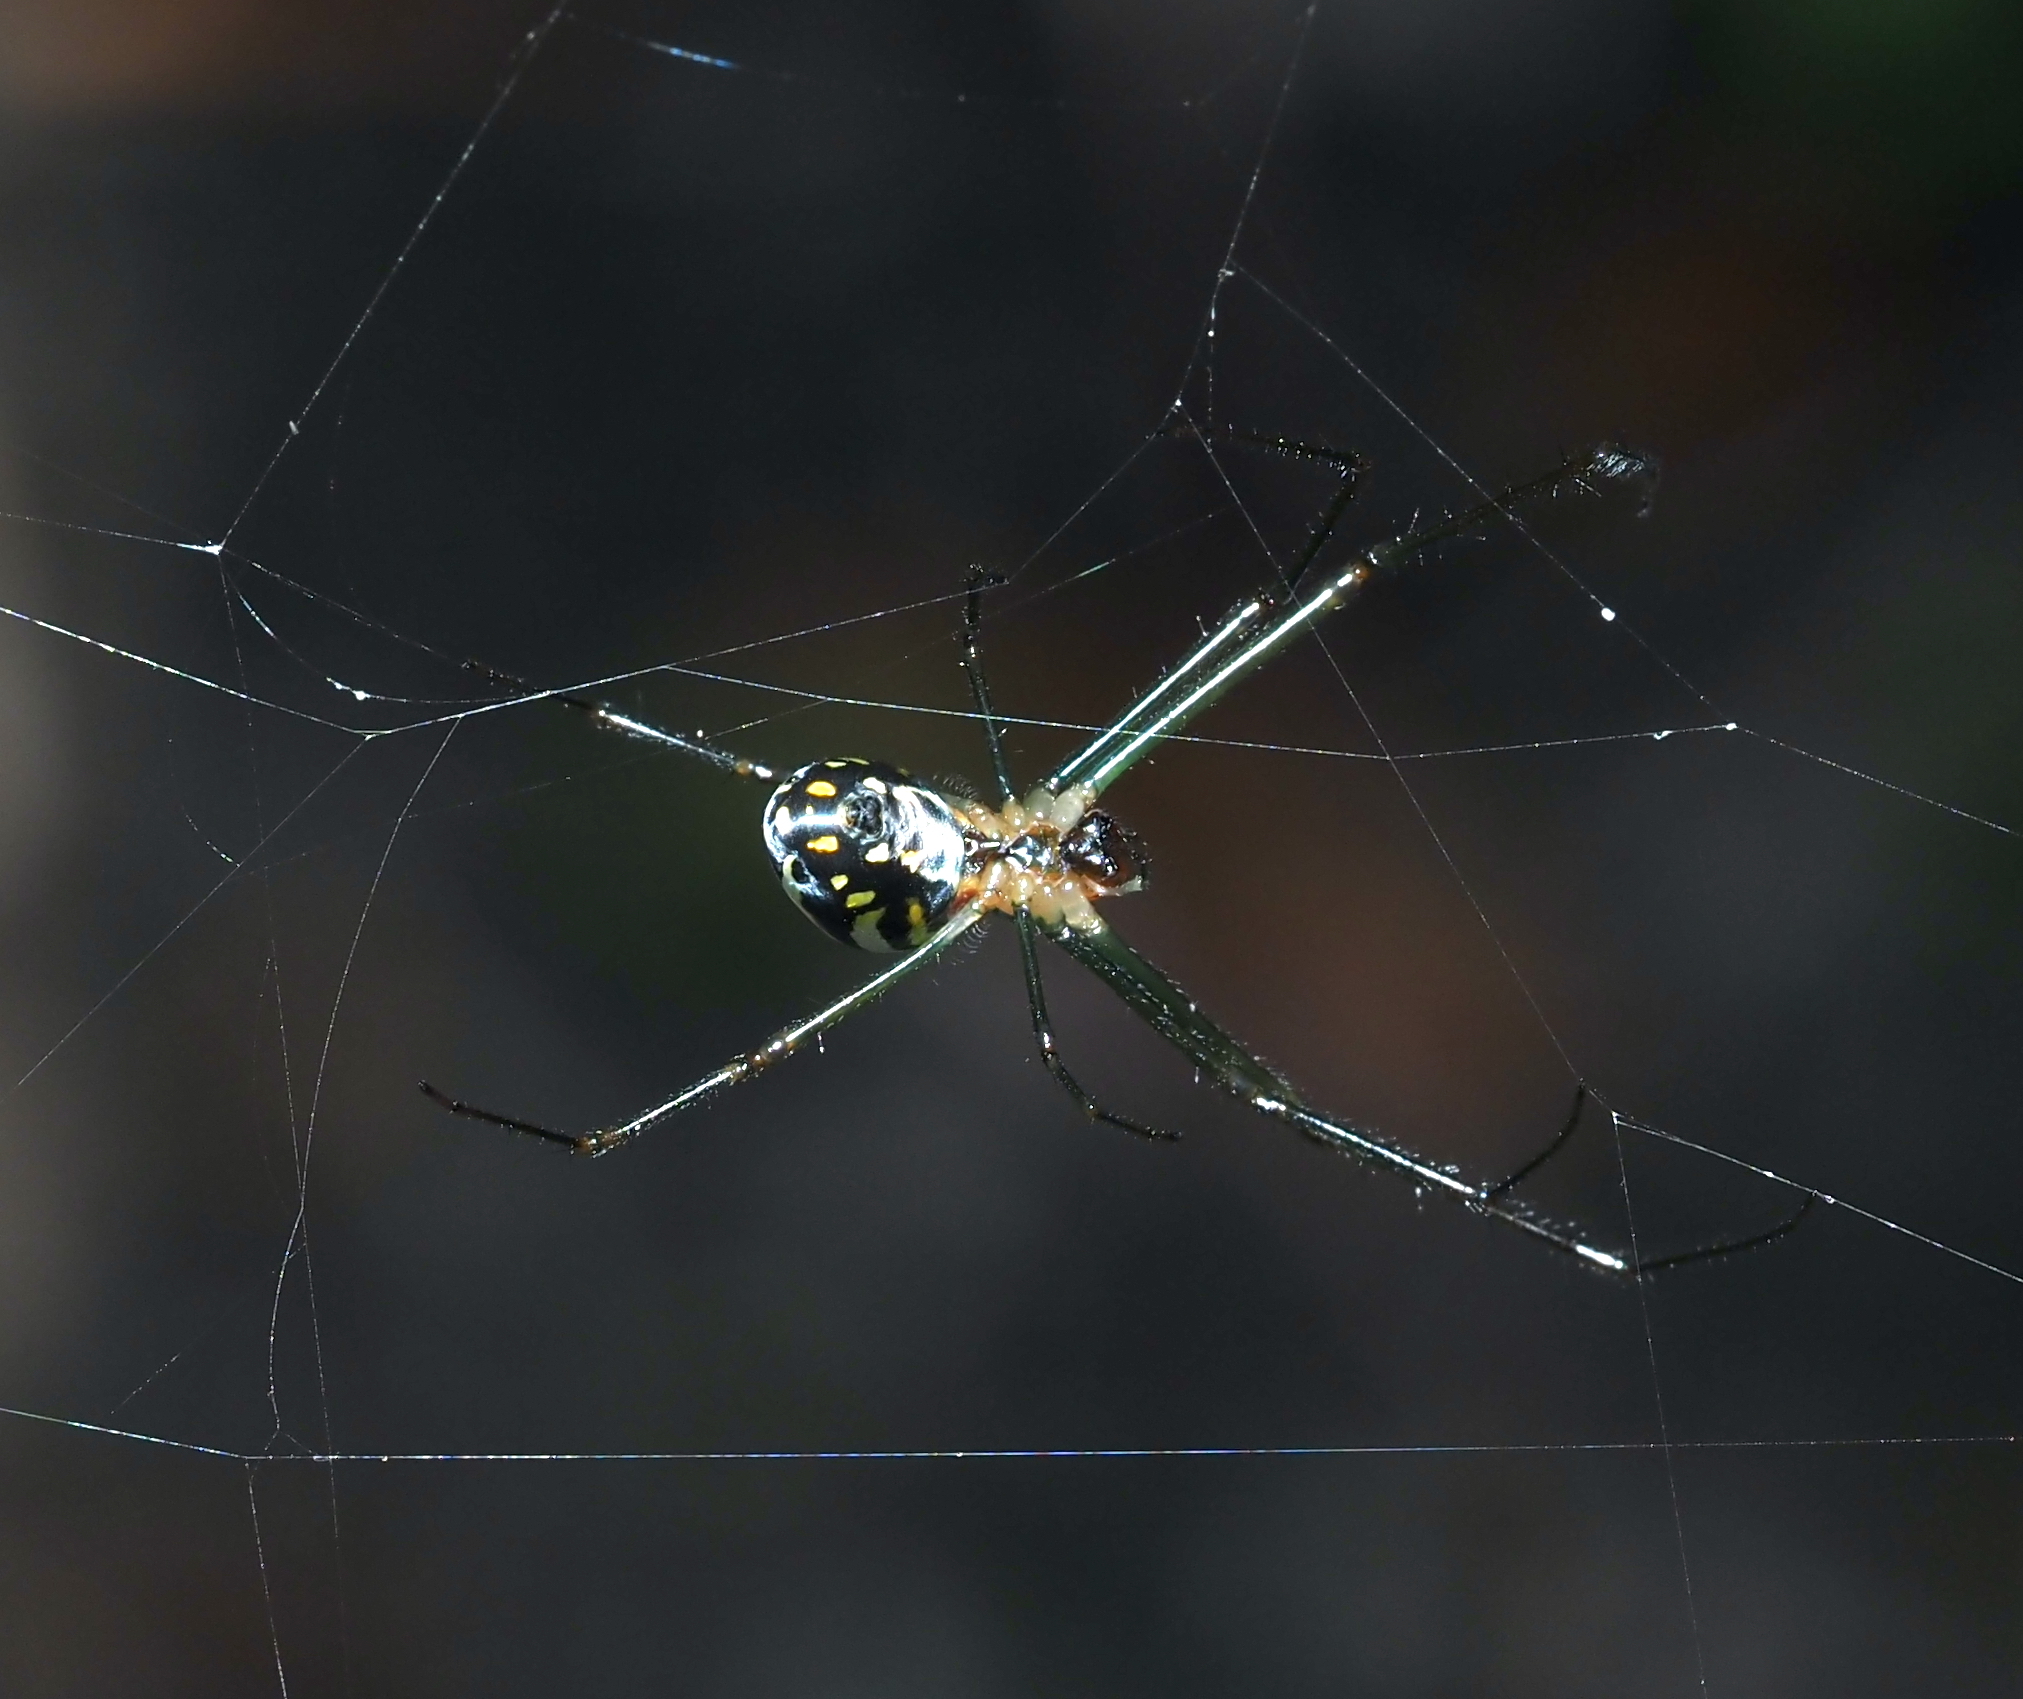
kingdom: Animalia
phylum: Arthropoda
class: Arachnida
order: Araneae
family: Tetragnathidae
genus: Leucauge
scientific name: Leucauge argyra
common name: Longjawed orb weavers
